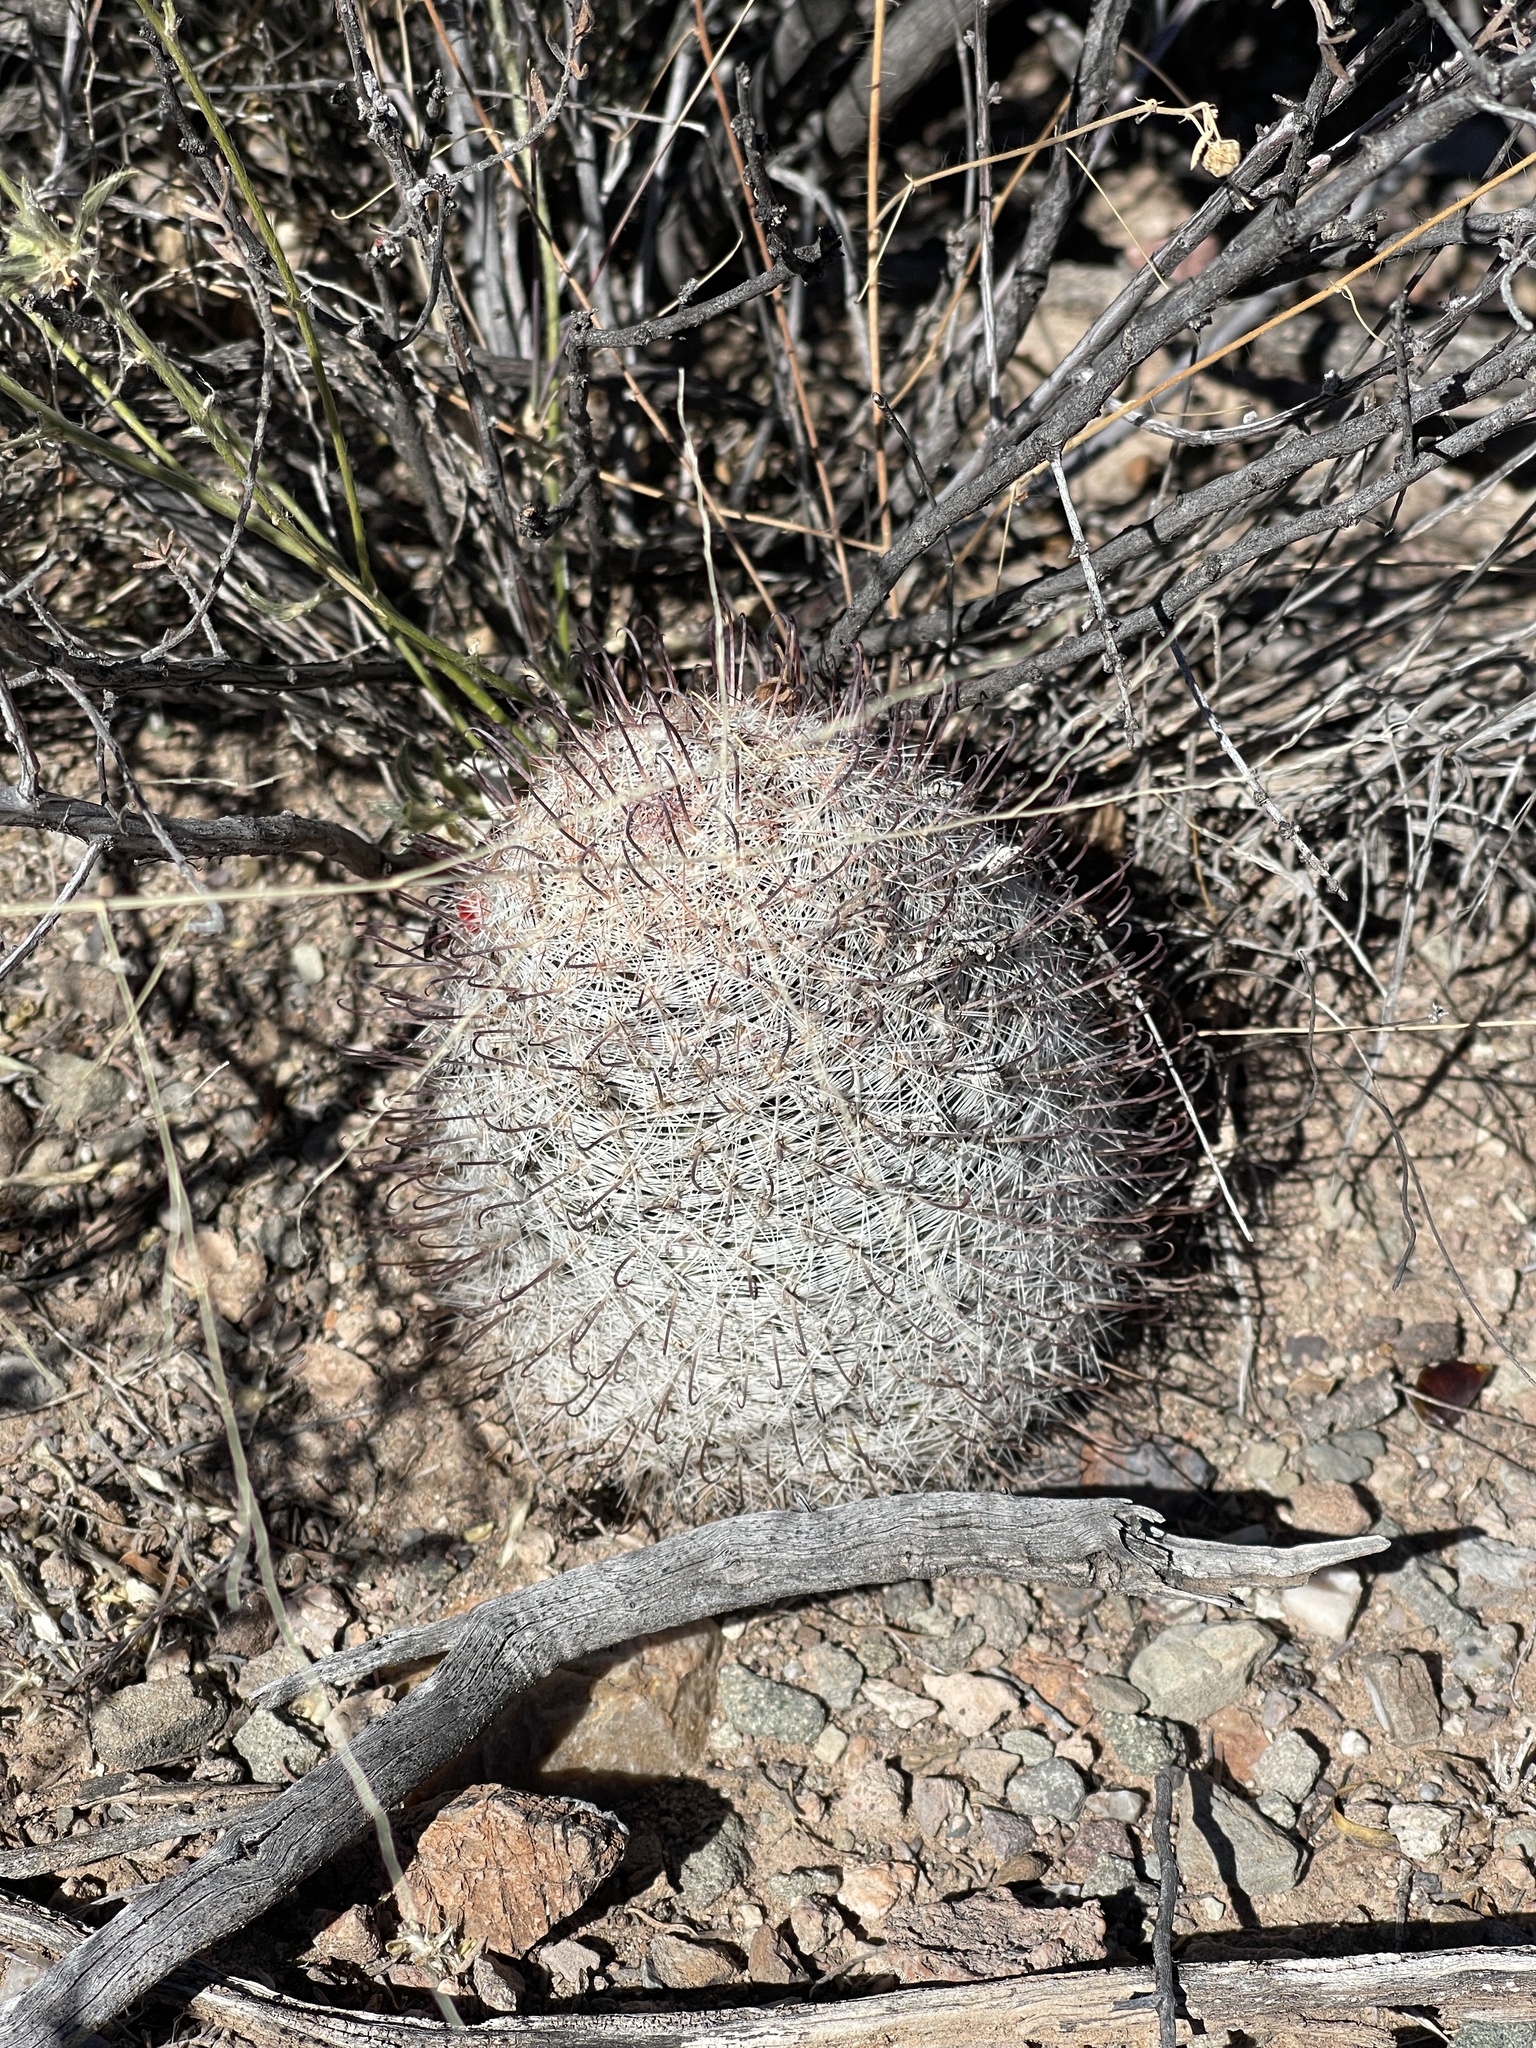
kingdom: Plantae
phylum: Tracheophyta
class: Magnoliopsida
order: Caryophyllales
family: Cactaceae
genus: Cochemiea
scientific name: Cochemiea grahamii
